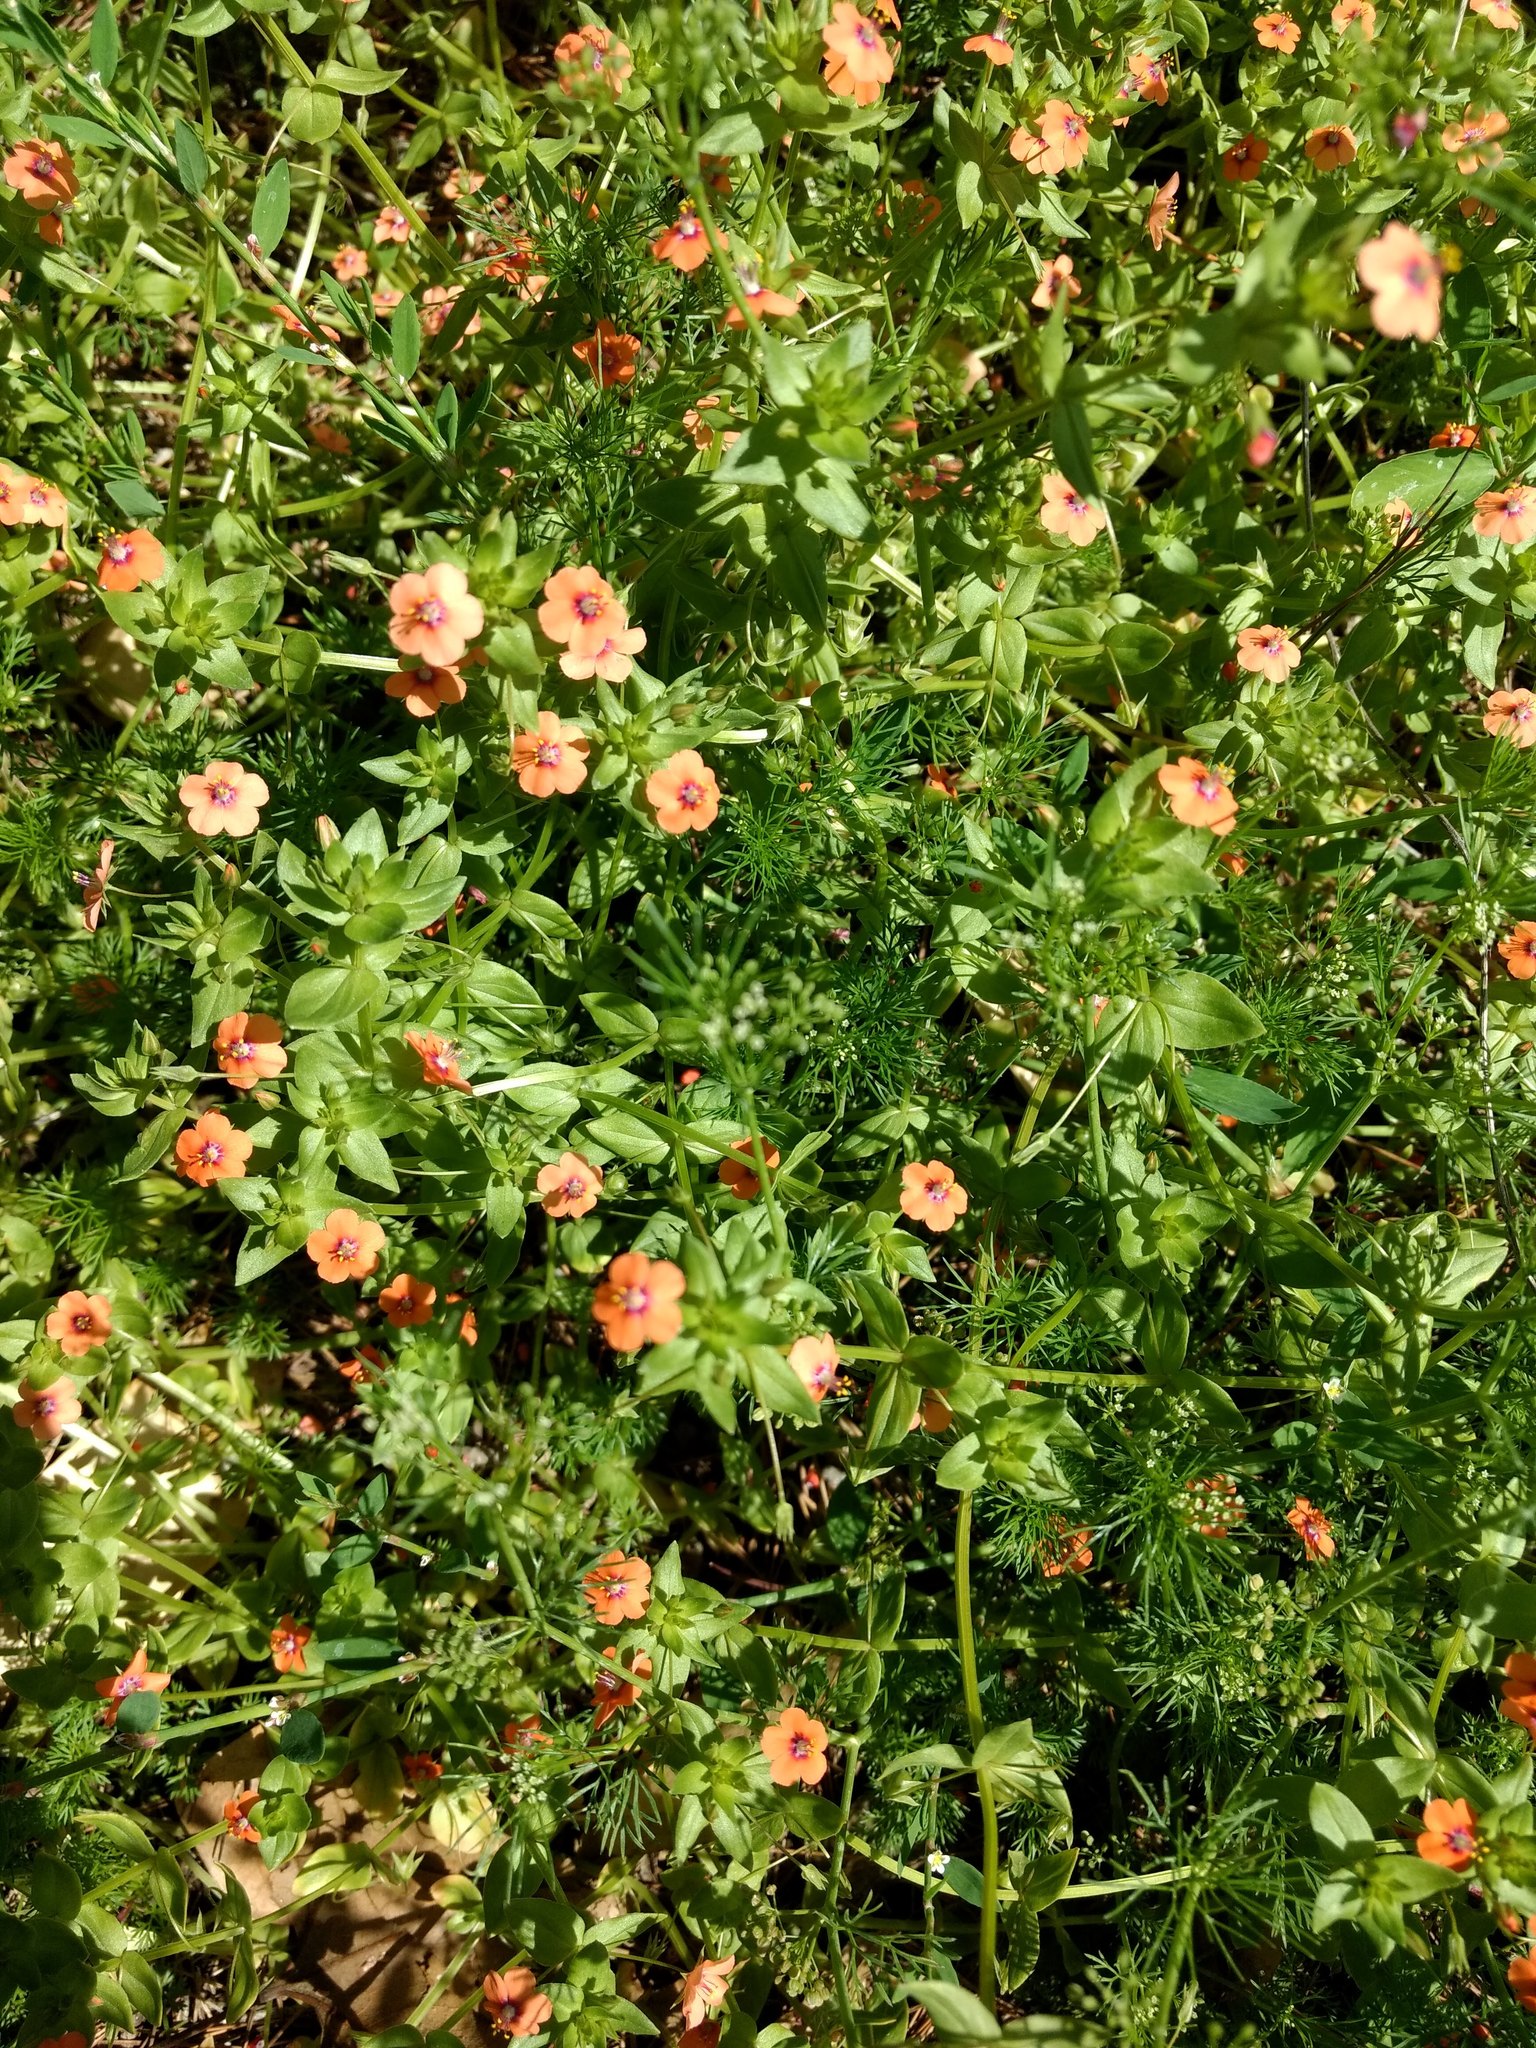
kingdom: Plantae
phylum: Tracheophyta
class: Magnoliopsida
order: Ericales
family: Primulaceae
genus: Lysimachia
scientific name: Lysimachia arvensis
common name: Scarlet pimpernel
